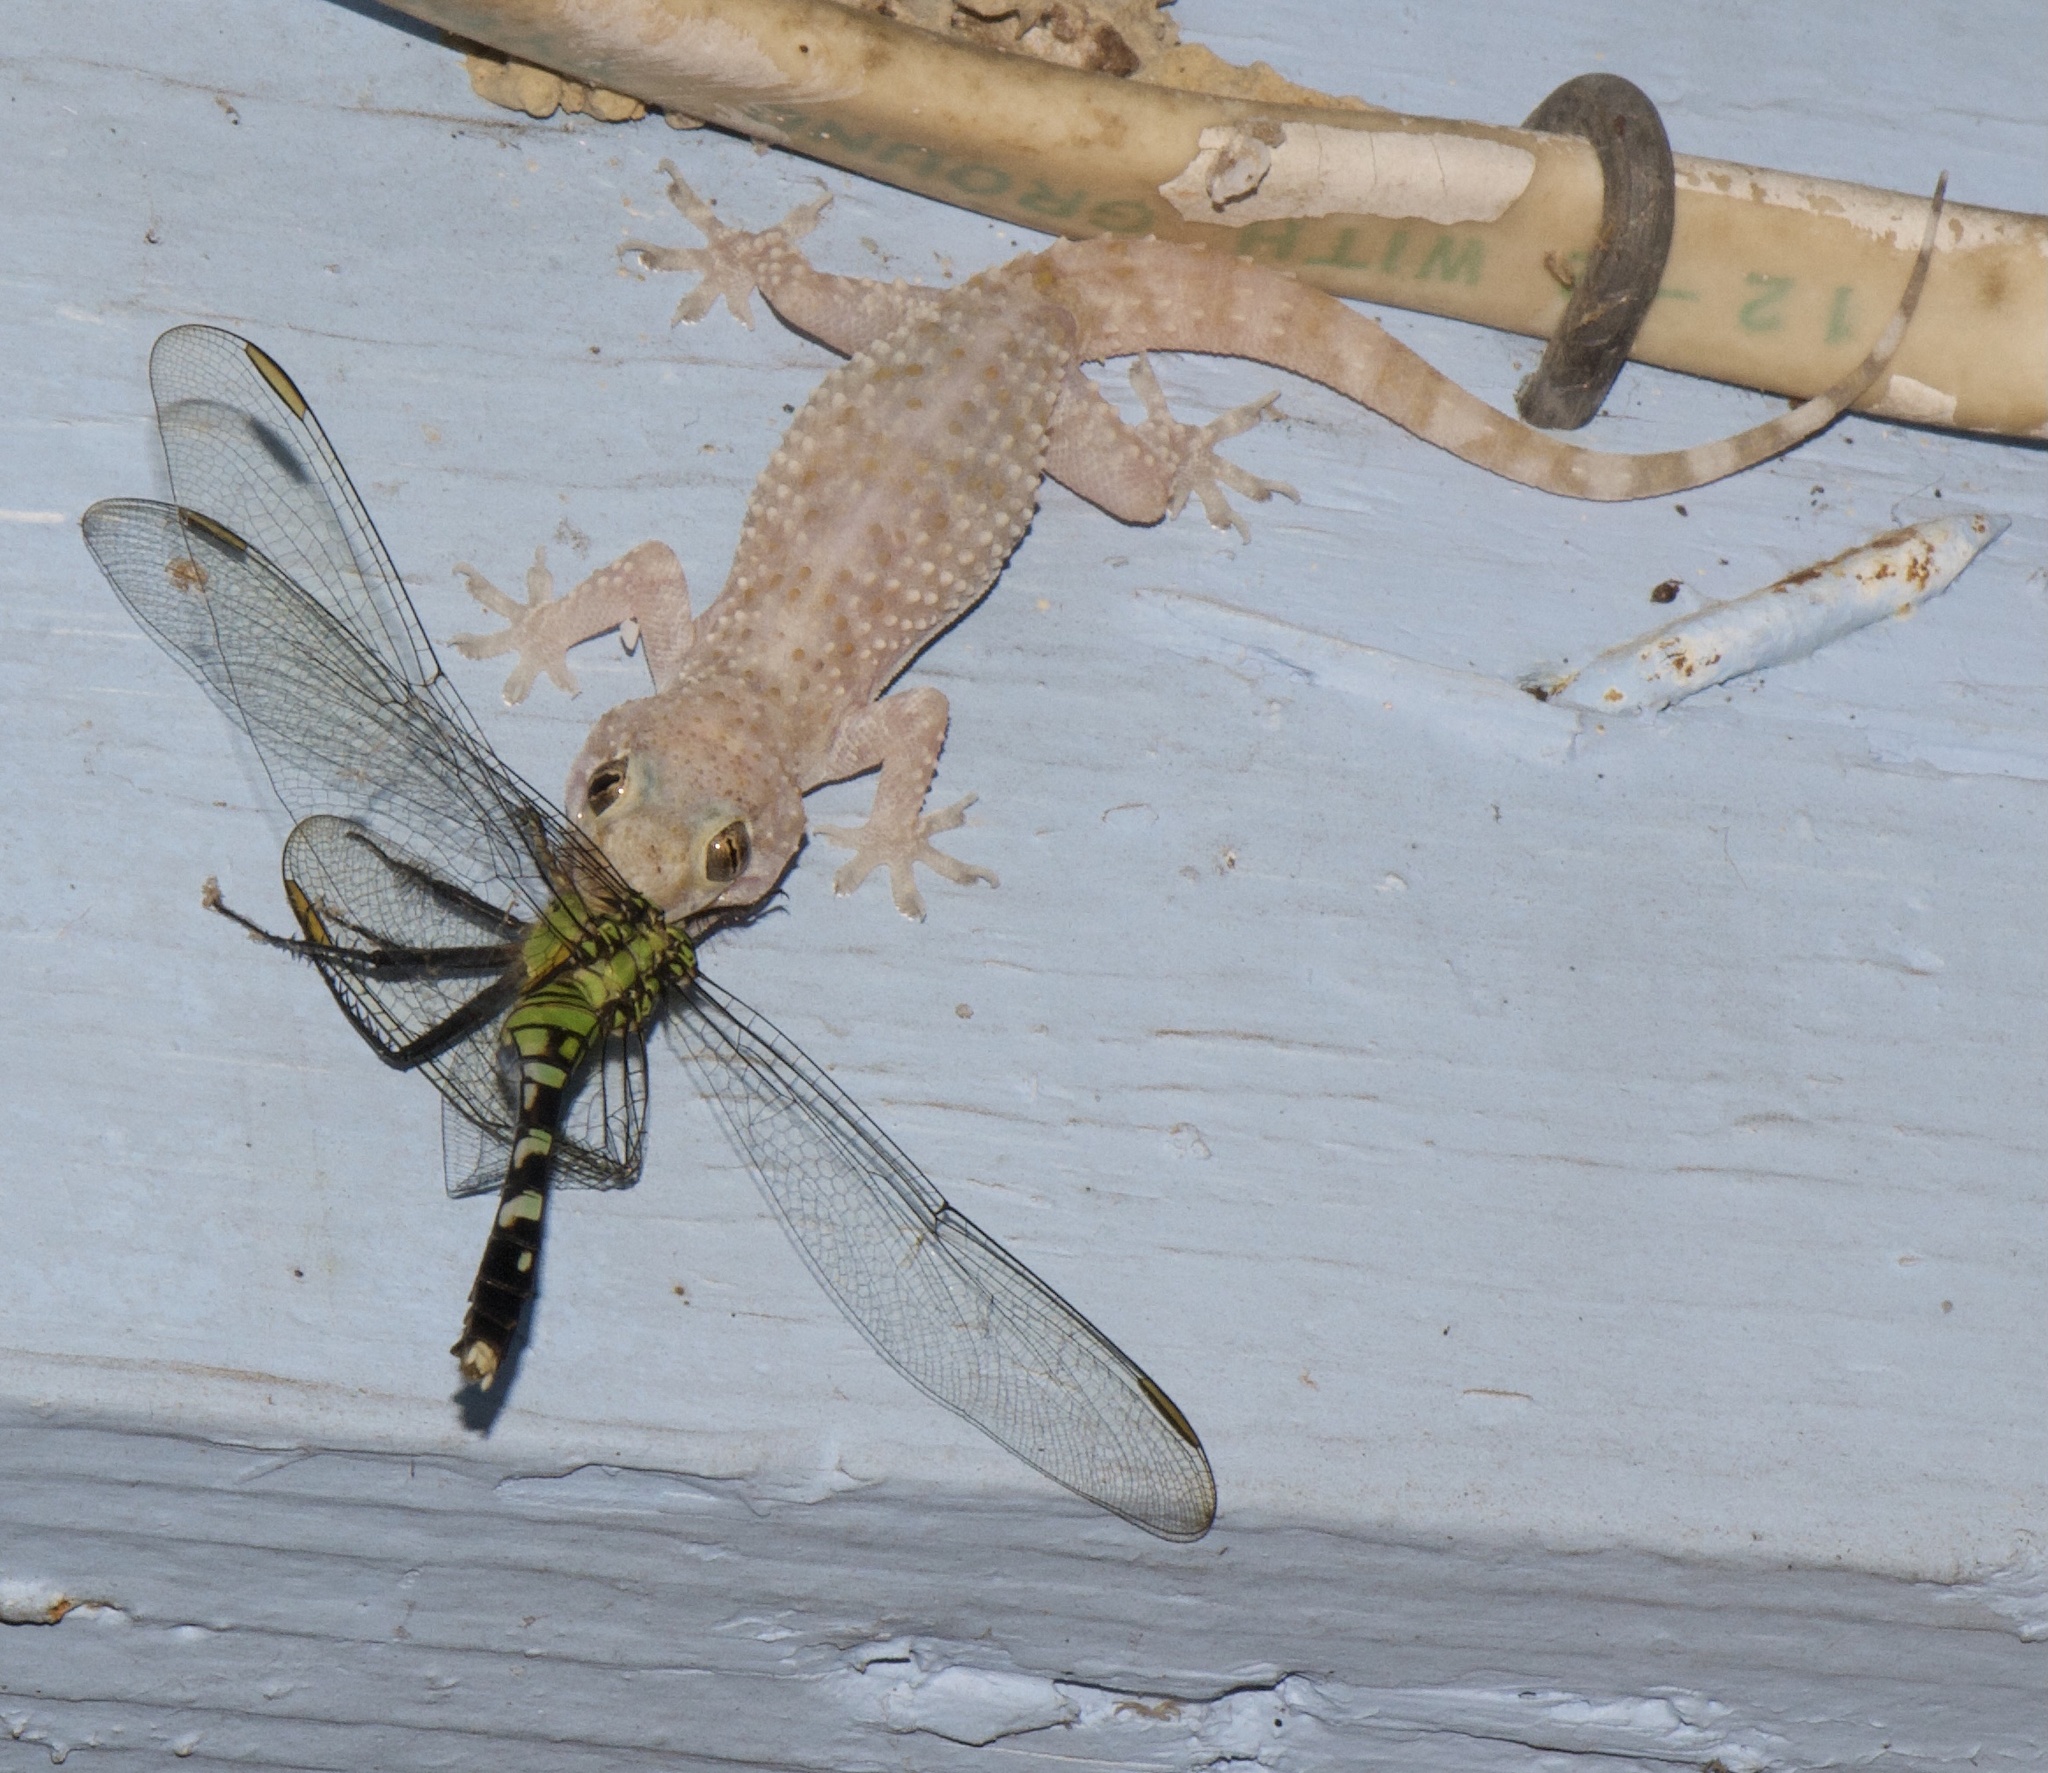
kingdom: Animalia
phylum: Chordata
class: Squamata
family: Gekkonidae
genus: Hemidactylus
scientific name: Hemidactylus turcicus
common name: Turkish gecko
